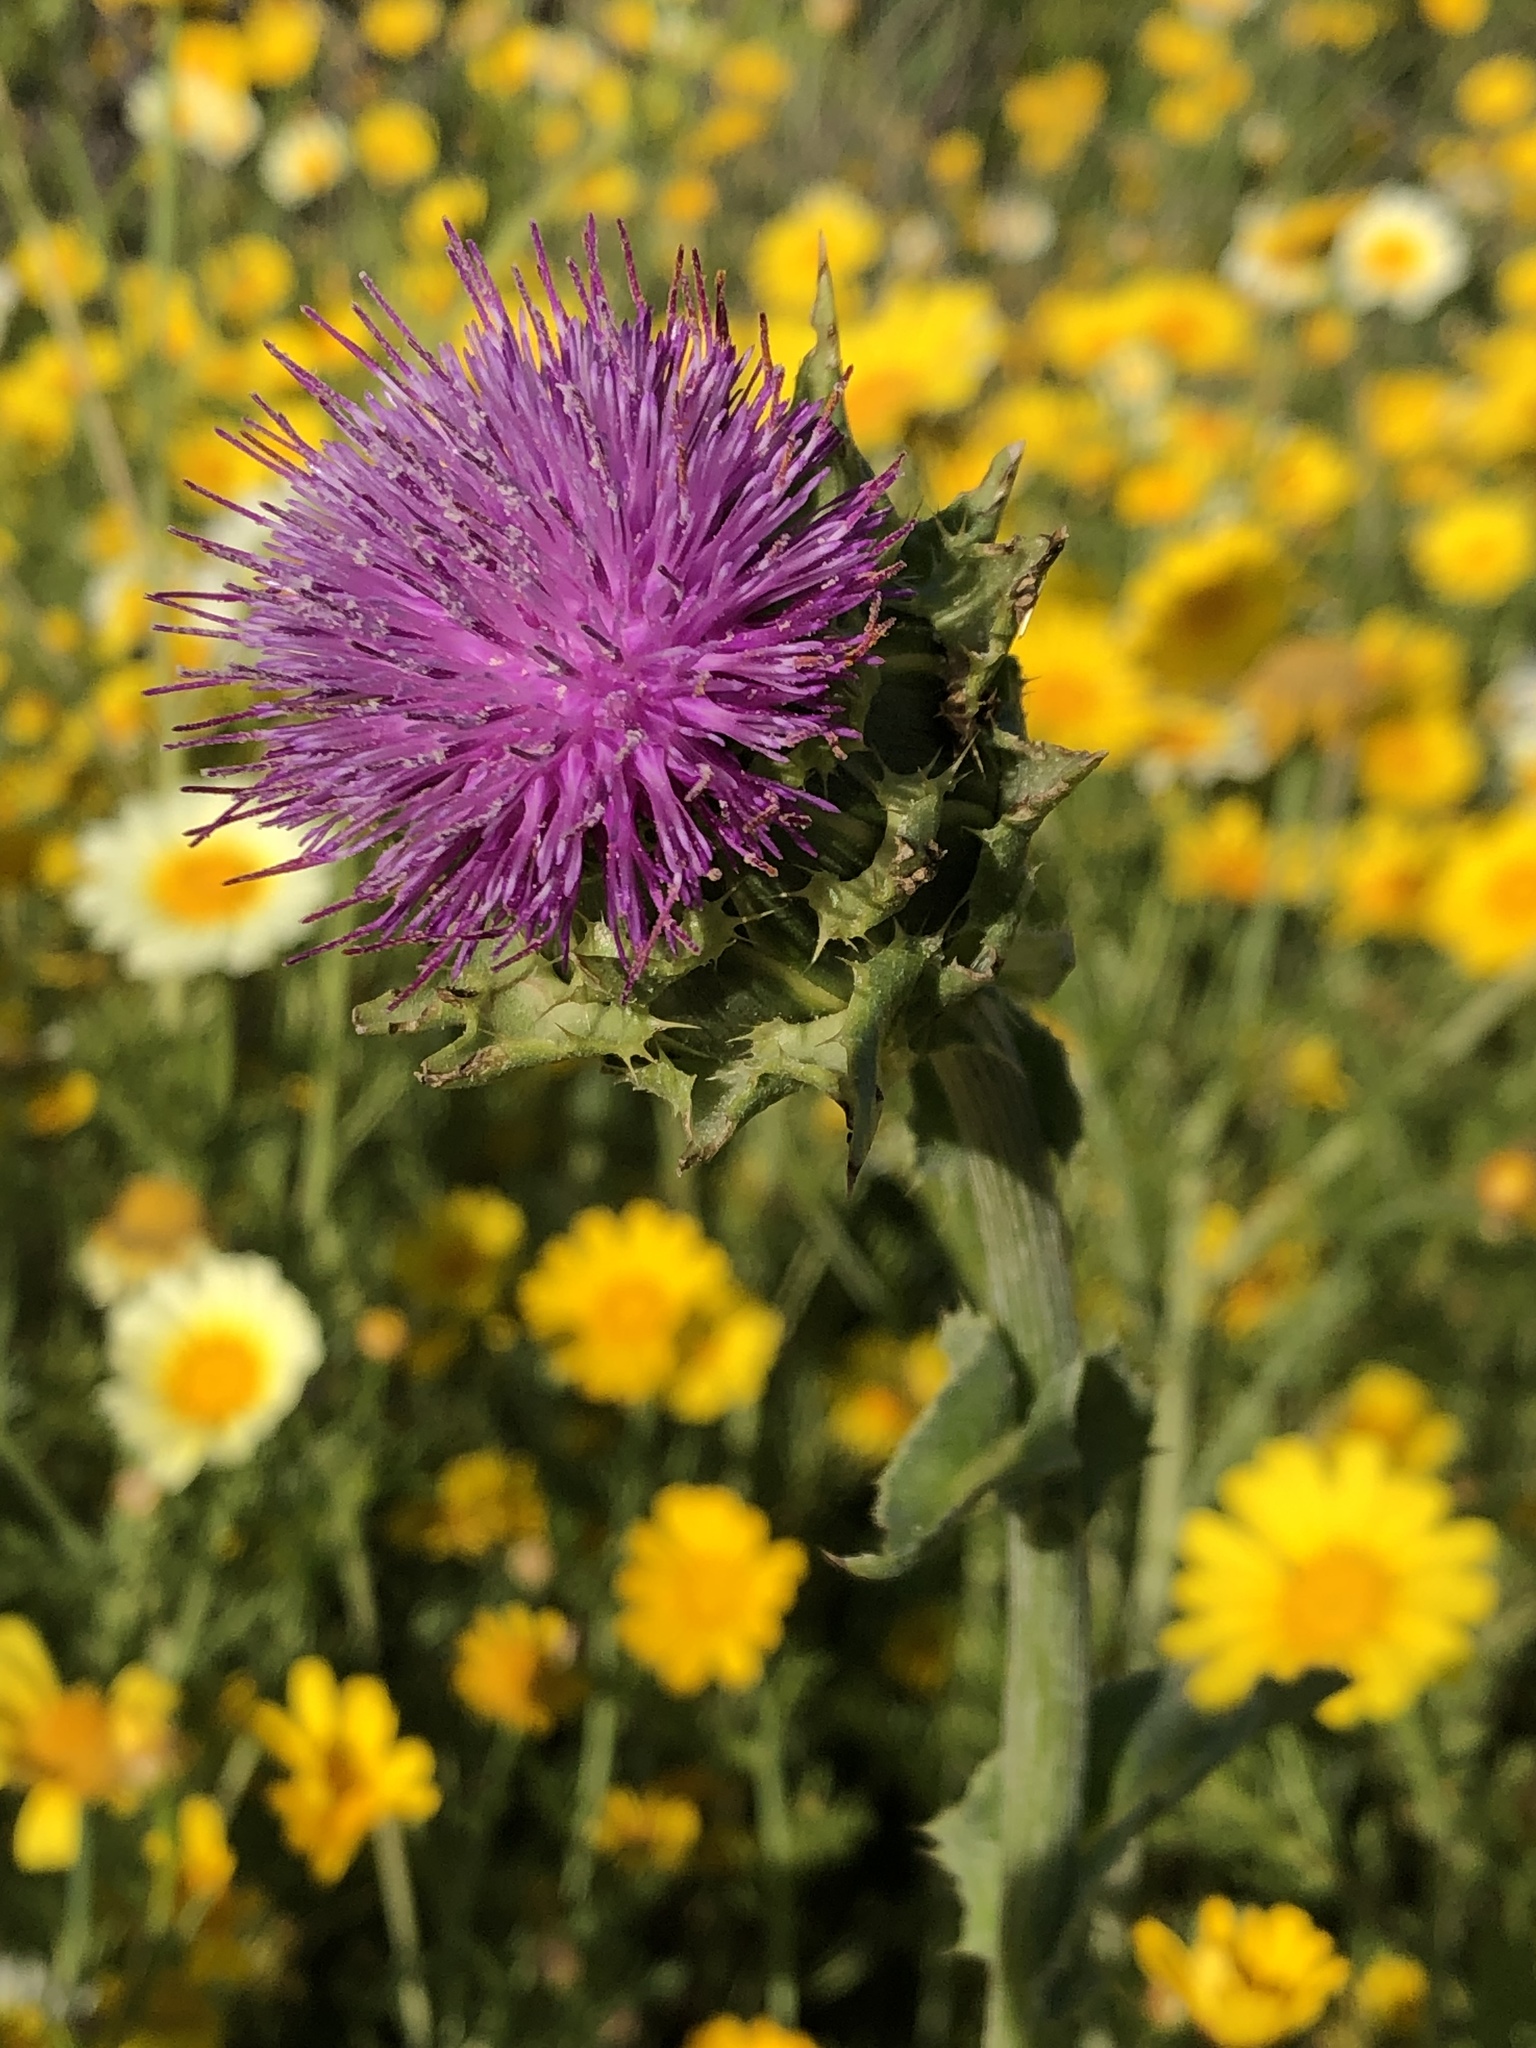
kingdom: Plantae
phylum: Tracheophyta
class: Magnoliopsida
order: Asterales
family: Asteraceae
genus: Silybum
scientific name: Silybum marianum
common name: Milk thistle
